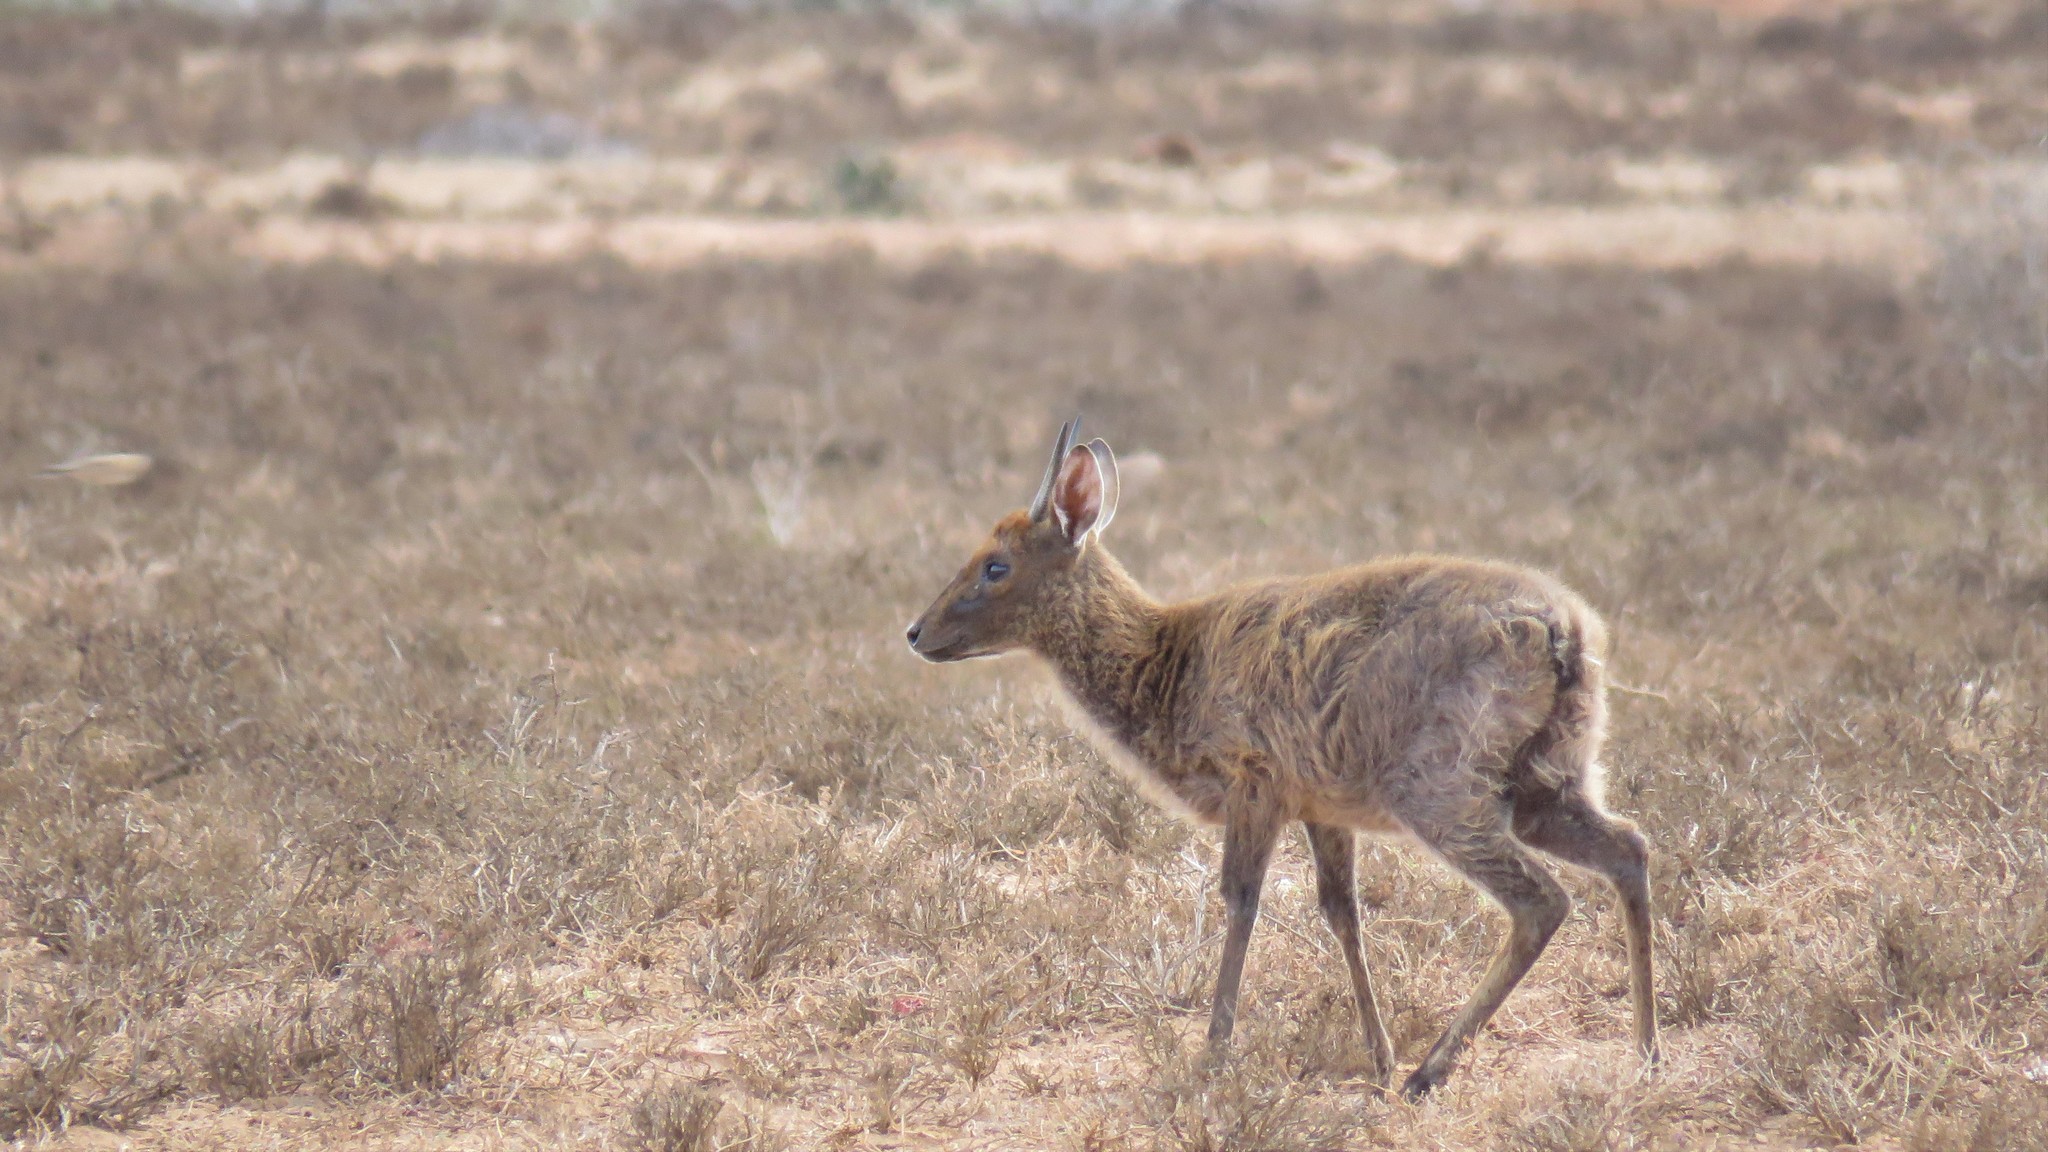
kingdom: Animalia
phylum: Chordata
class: Mammalia
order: Artiodactyla
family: Bovidae
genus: Sylvicapra
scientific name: Sylvicapra grimmia
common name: Bush duiker
